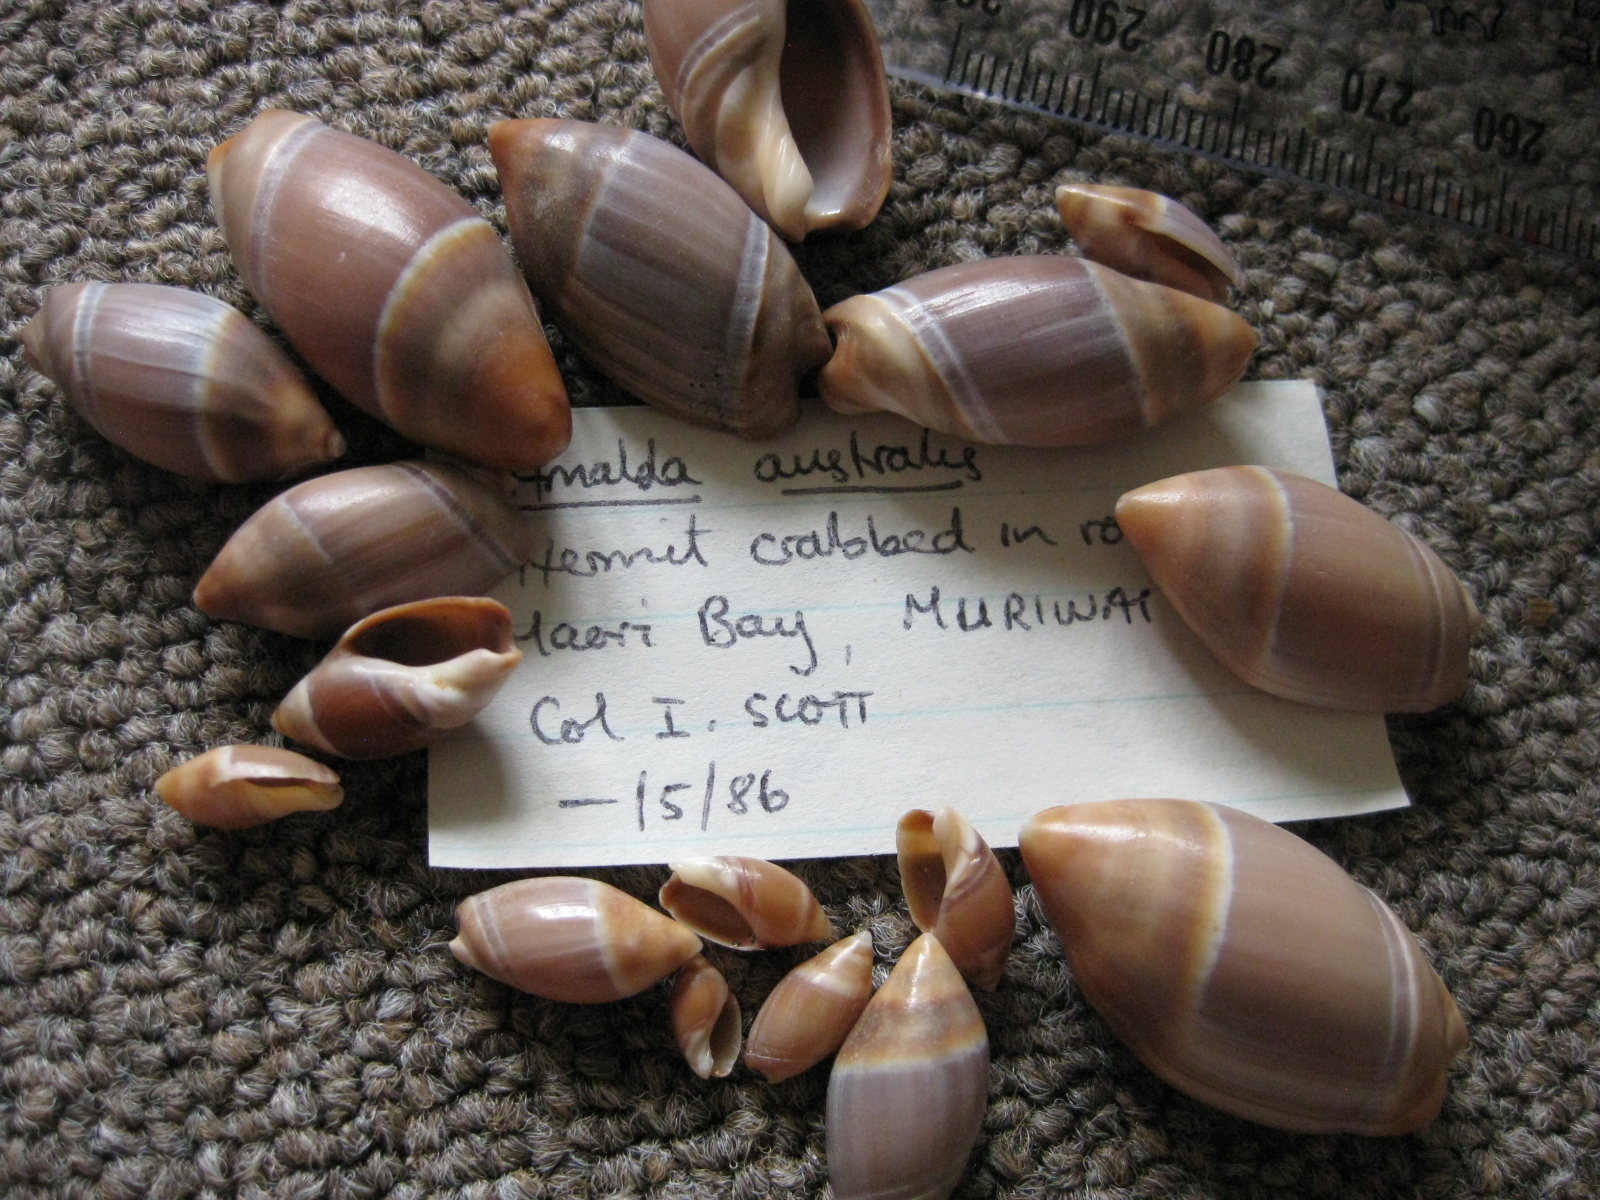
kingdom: Animalia
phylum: Mollusca
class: Gastropoda
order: Neogastropoda
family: Ancillariidae
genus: Amalda
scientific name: Amalda australis
